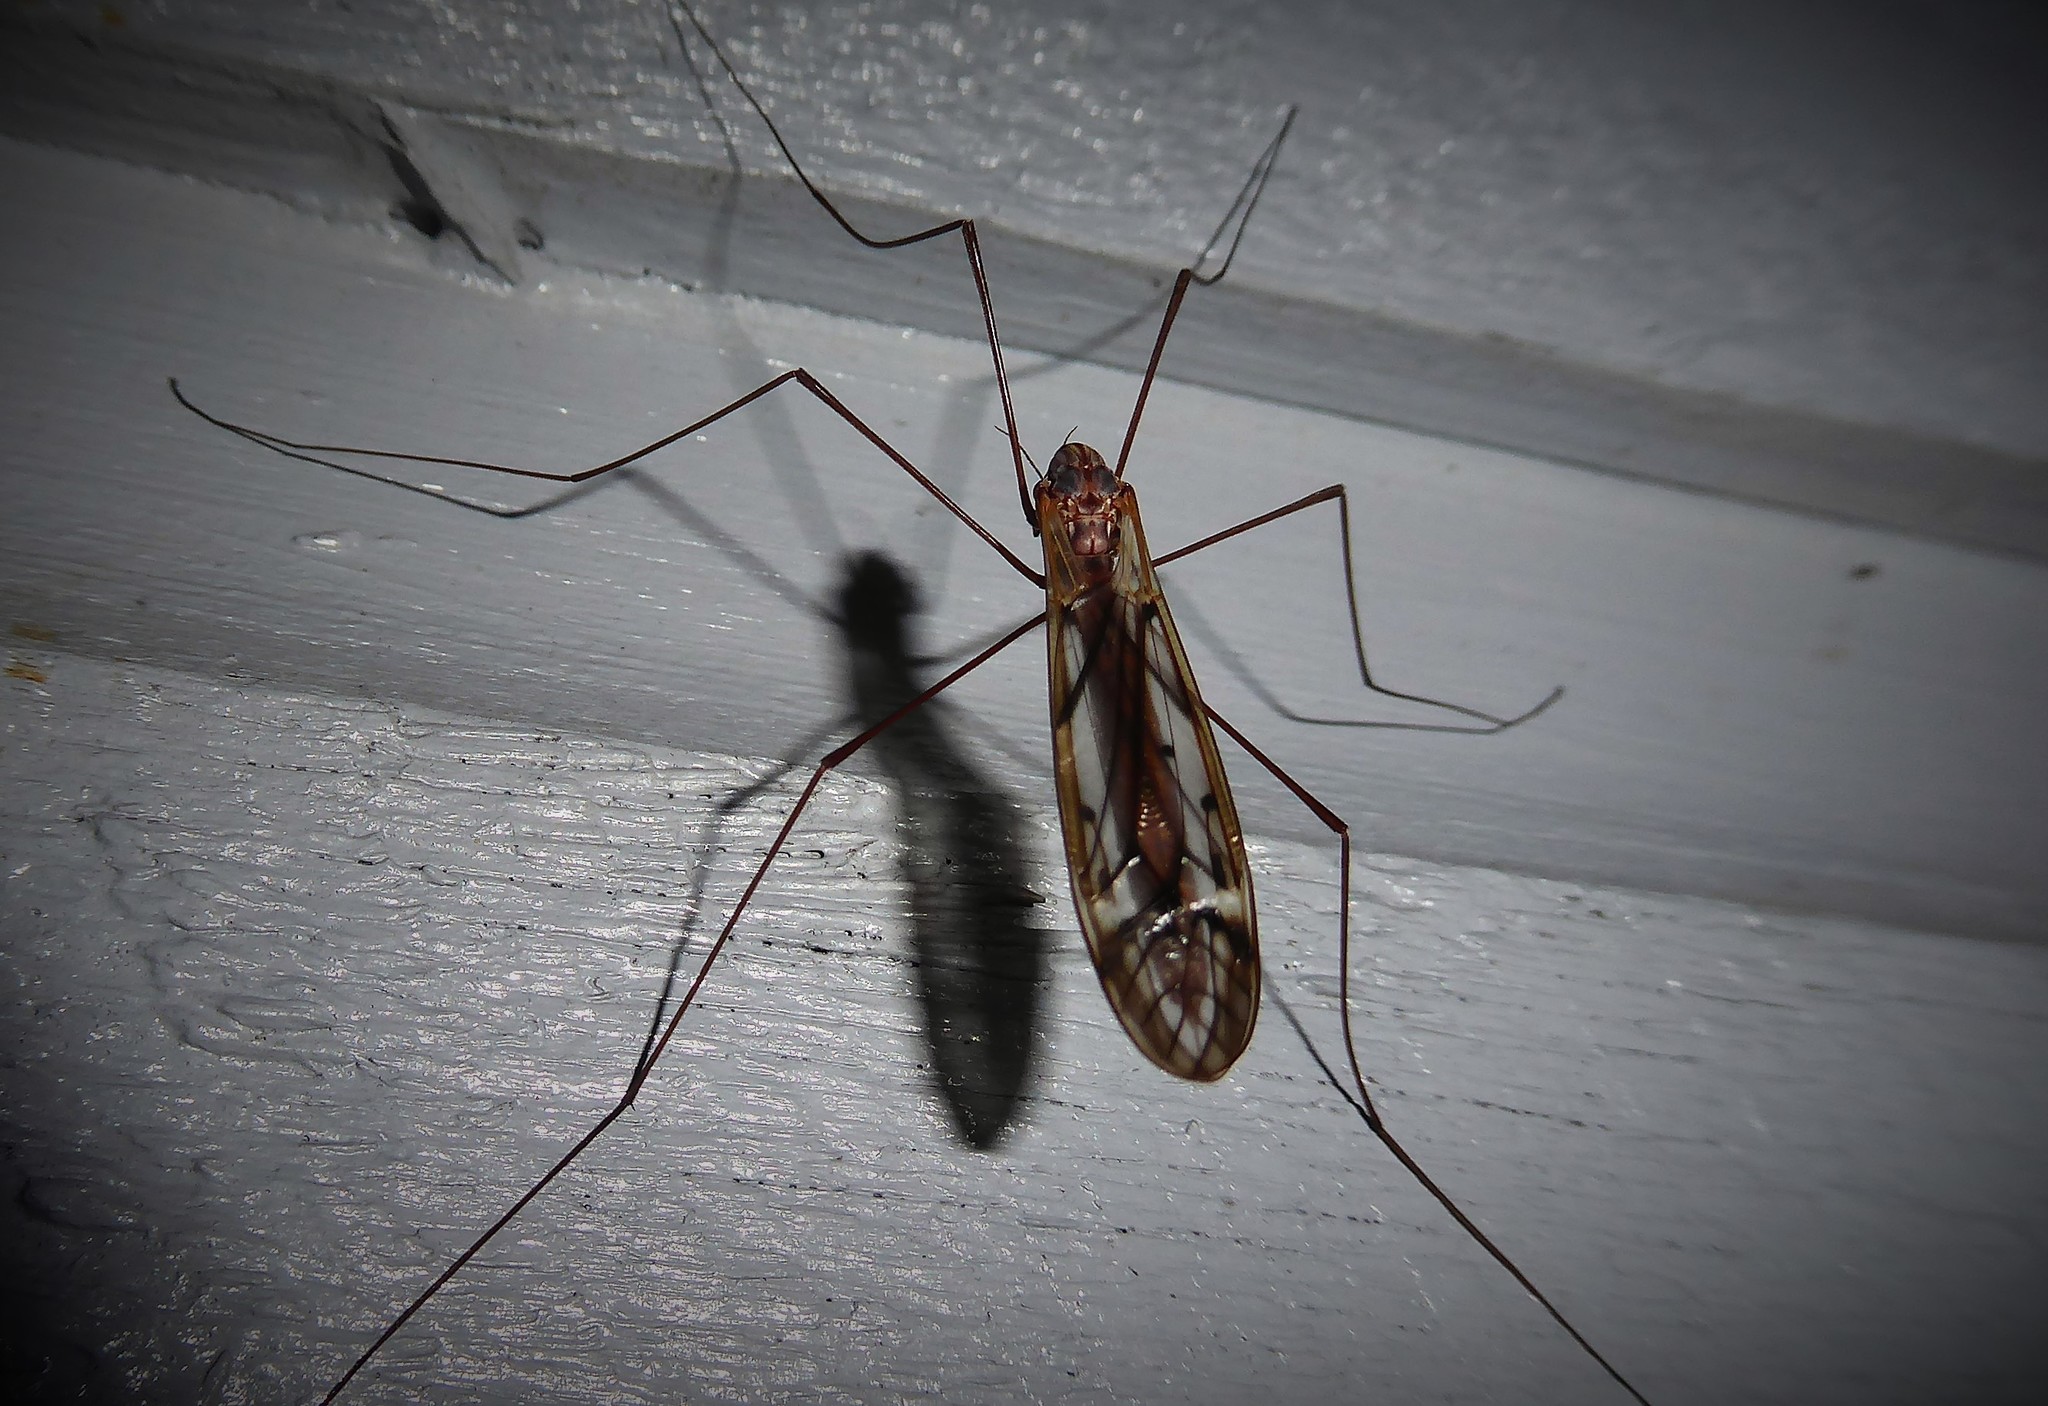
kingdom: Animalia
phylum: Arthropoda
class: Insecta
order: Diptera
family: Tipulidae
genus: Zelandotipula
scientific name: Zelandotipula novarae
